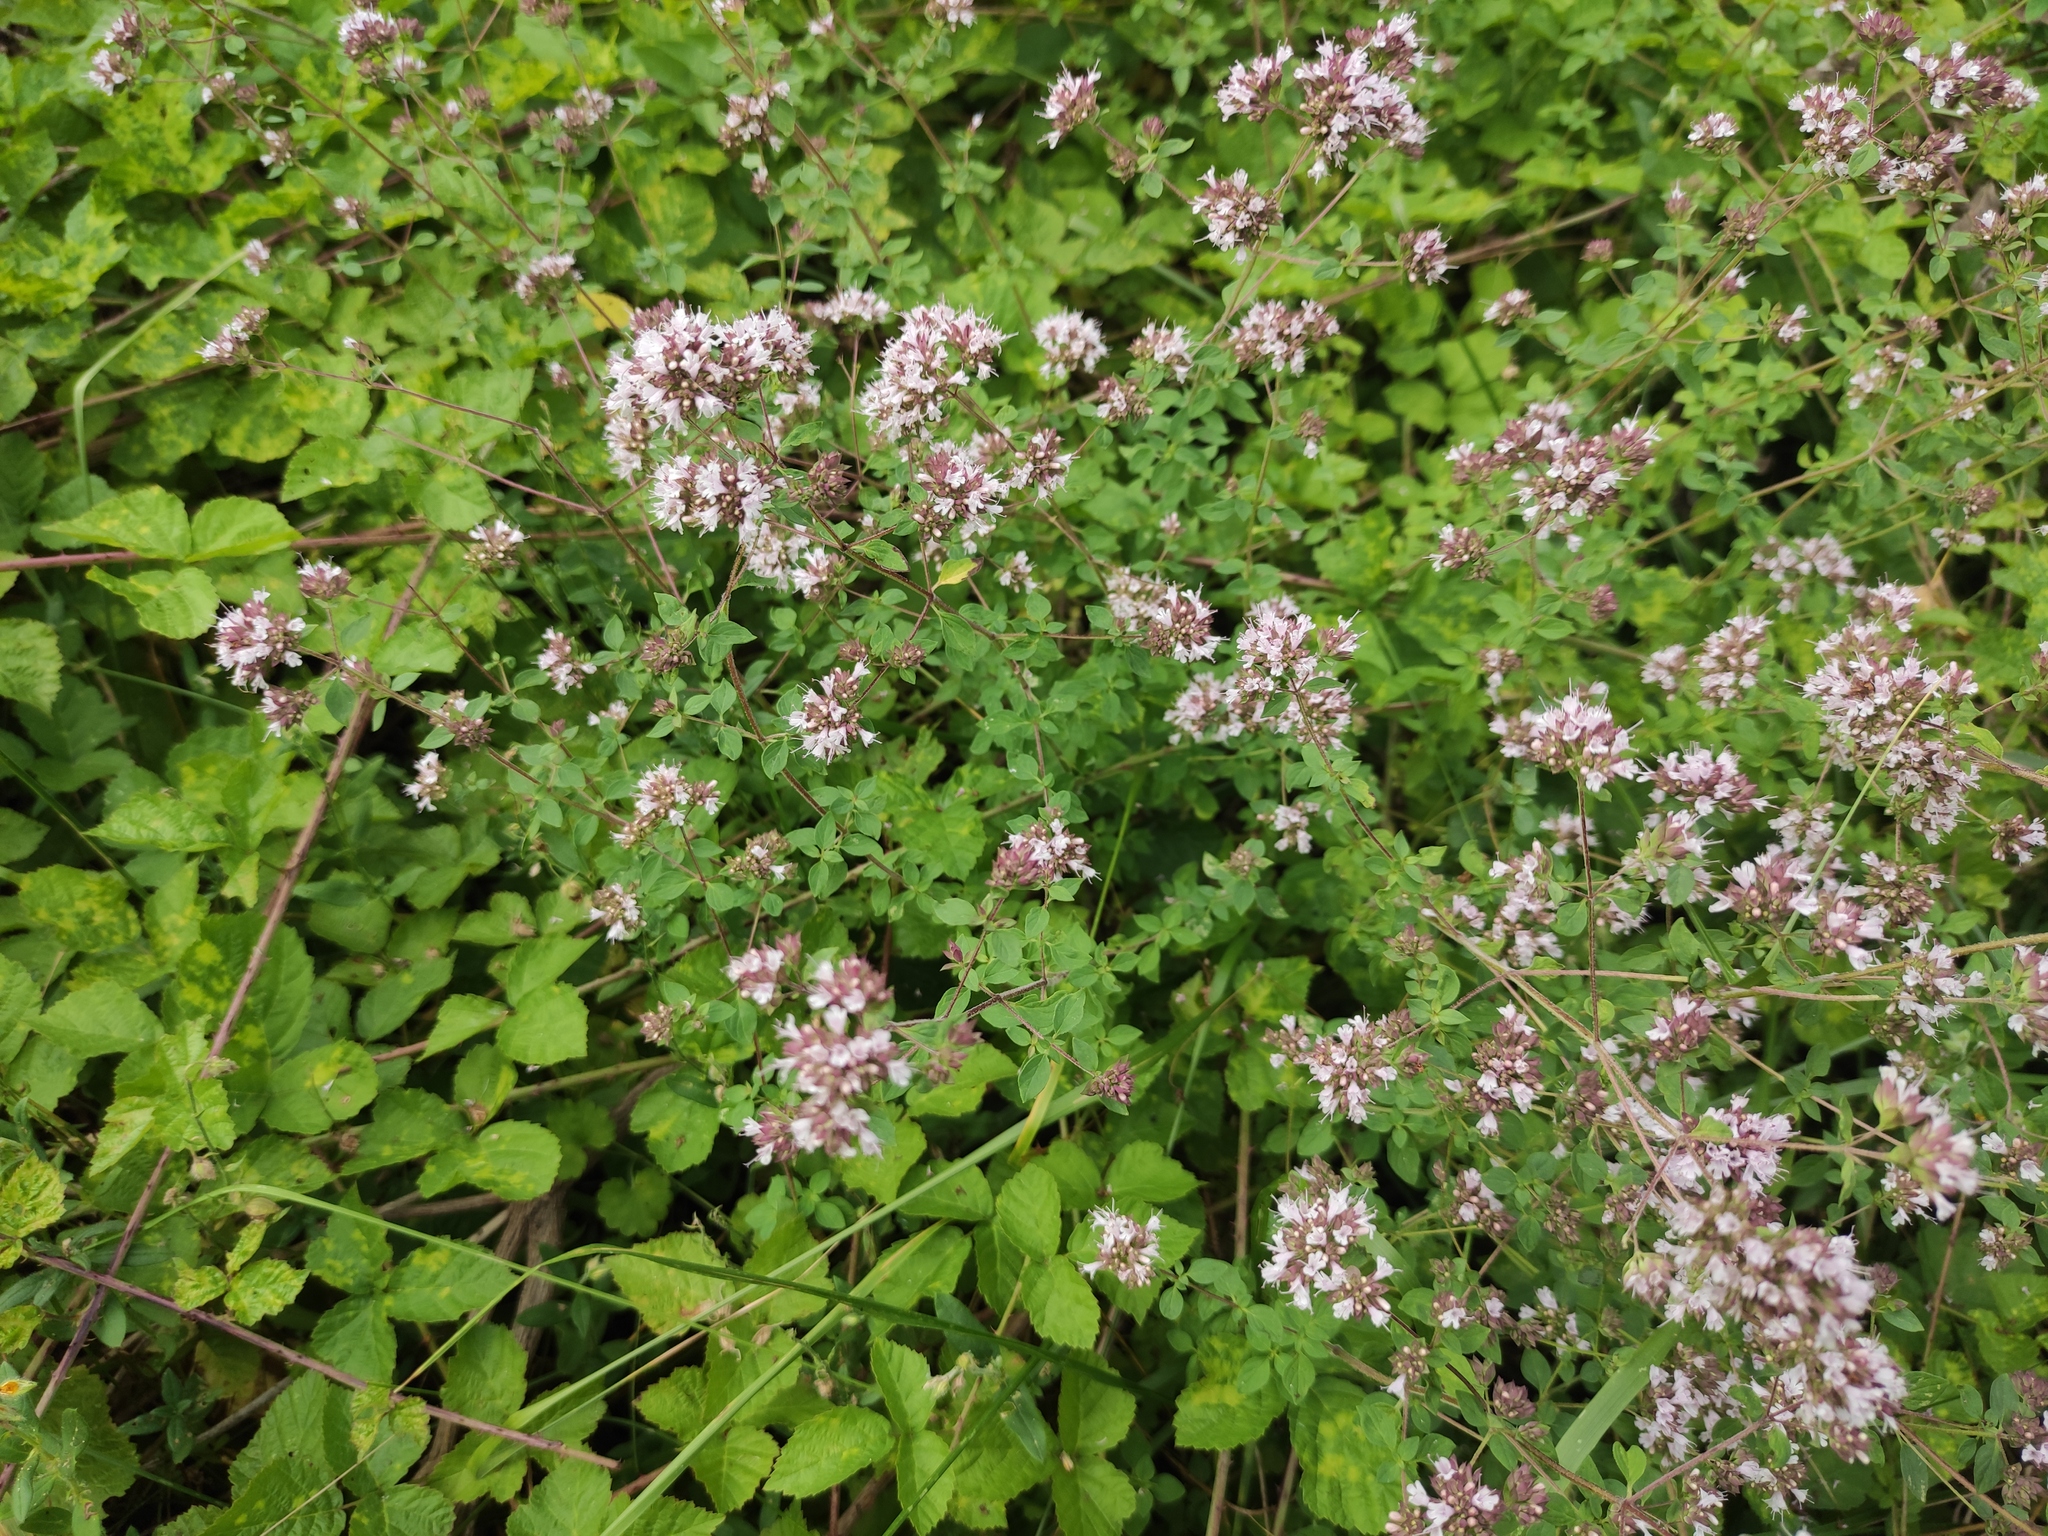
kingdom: Plantae
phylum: Tracheophyta
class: Magnoliopsida
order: Lamiales
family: Lamiaceae
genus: Origanum
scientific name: Origanum vulgare
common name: Wild marjoram
